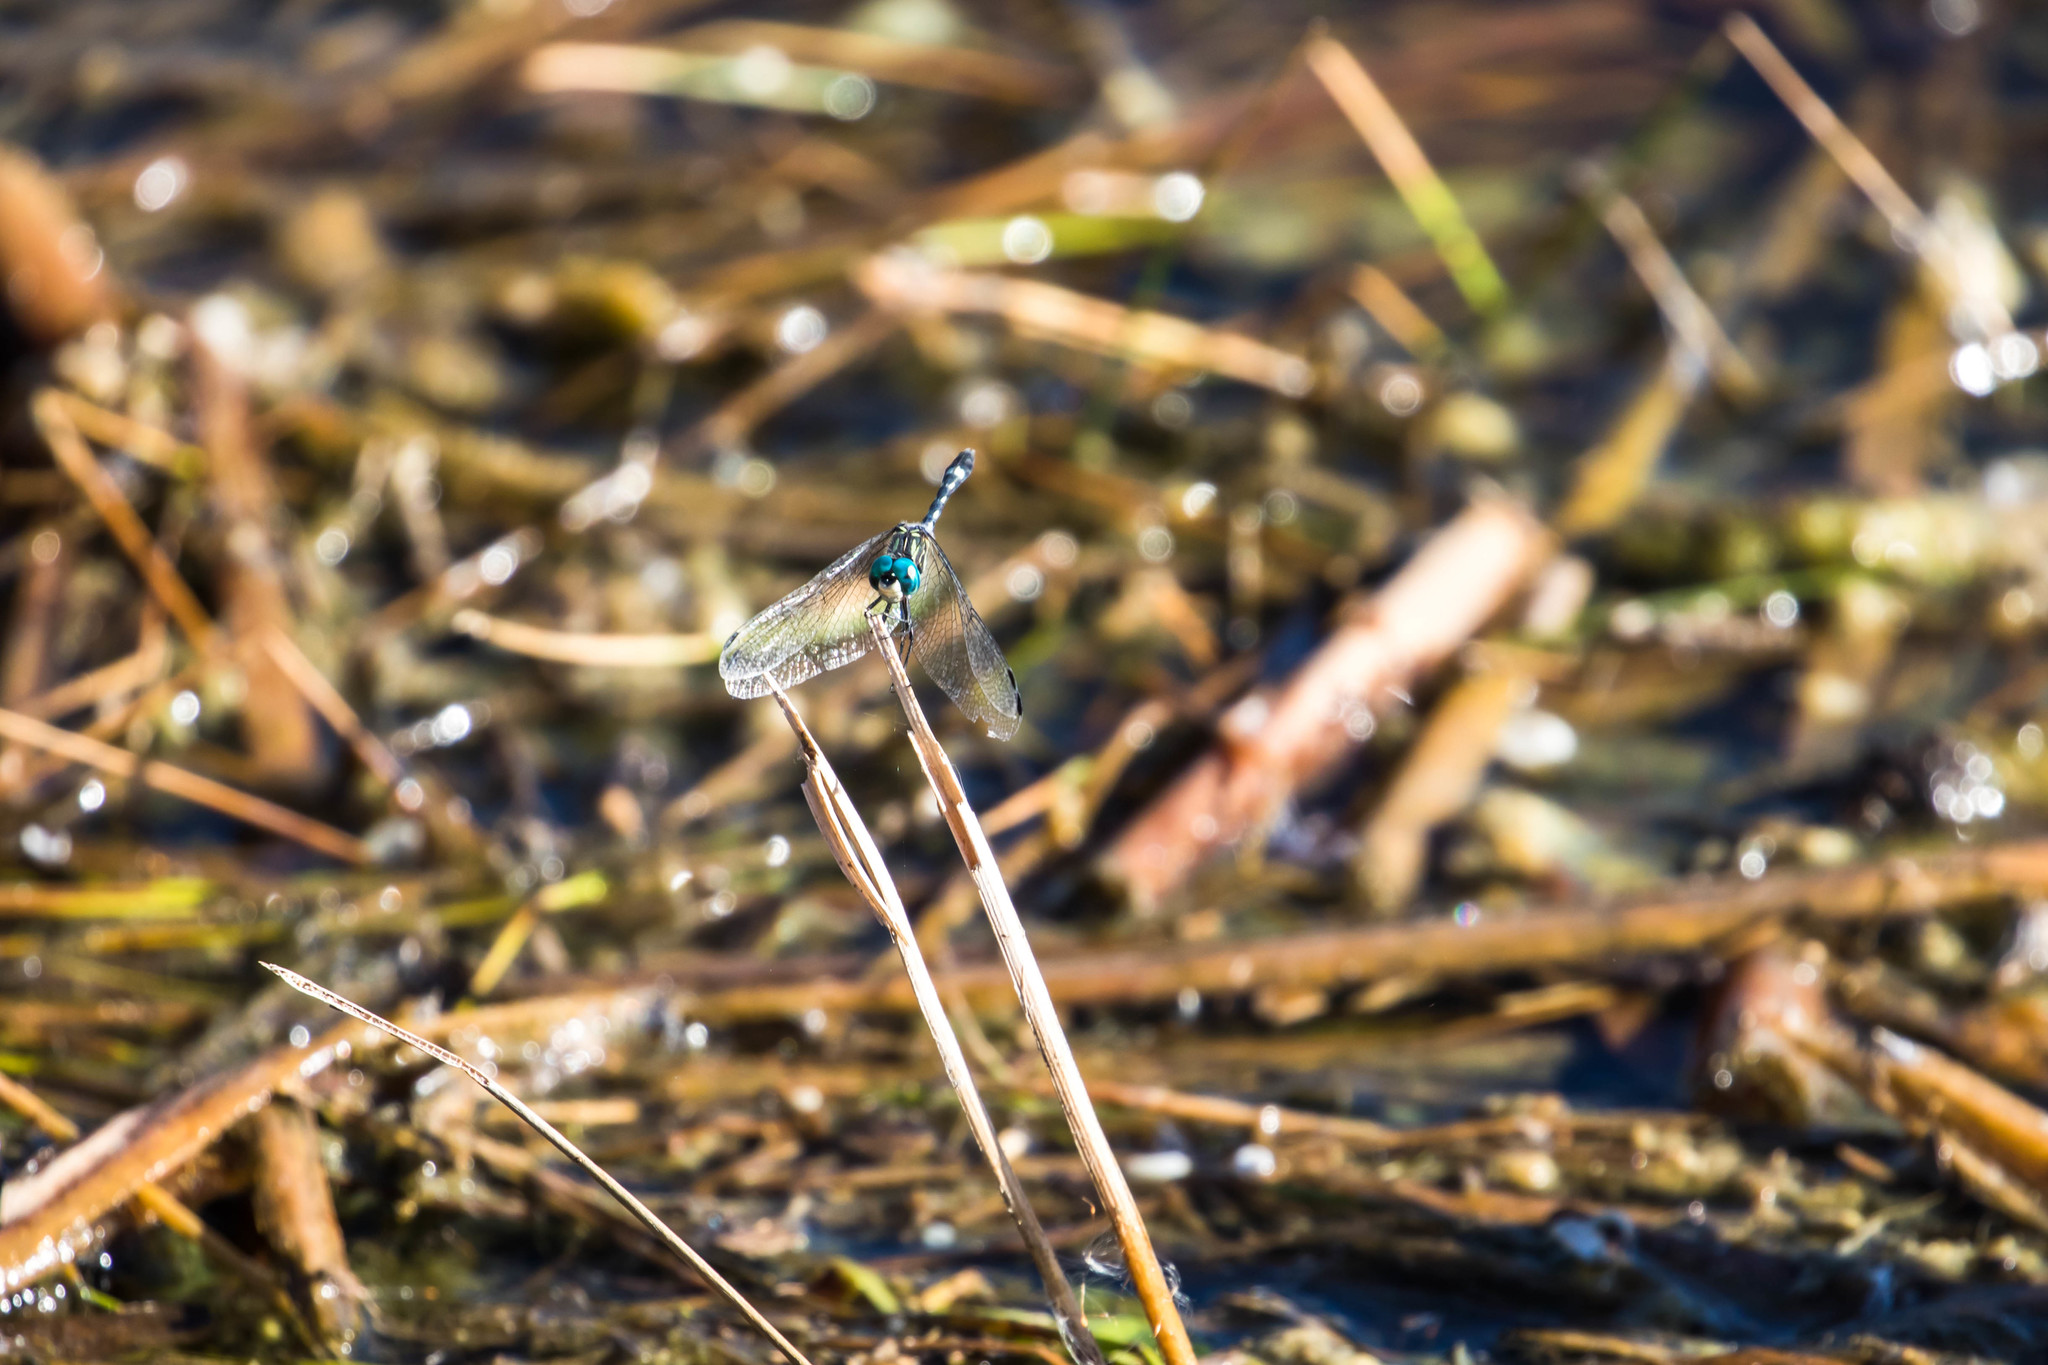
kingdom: Animalia
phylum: Arthropoda
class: Insecta
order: Odonata
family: Libellulidae
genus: Micrathyria
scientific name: Micrathyria hagenii
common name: Thornbush dasher
